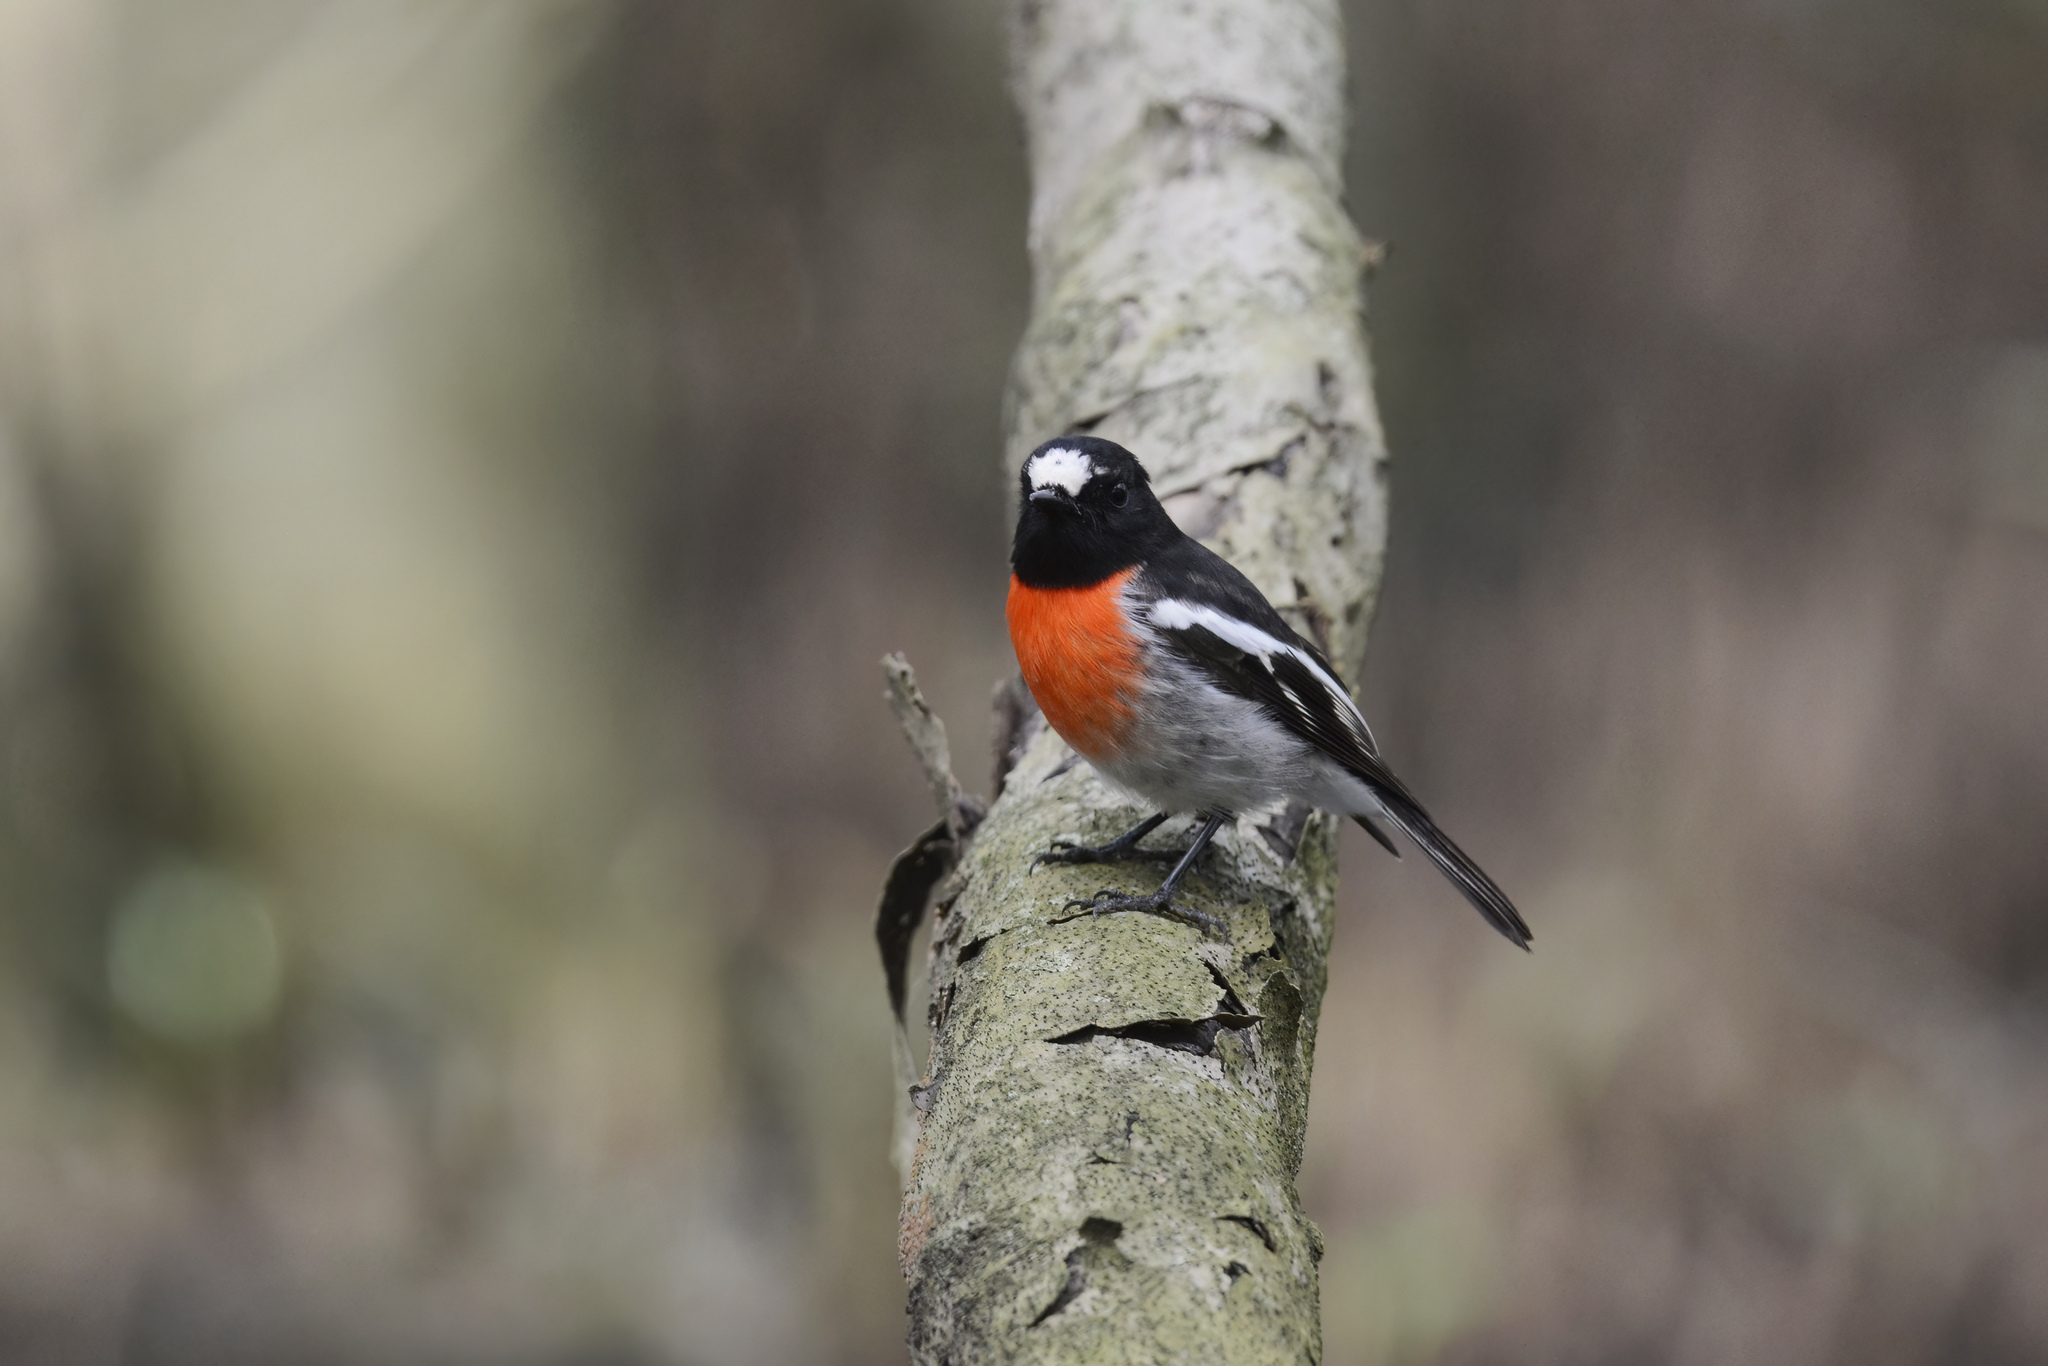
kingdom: Animalia
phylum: Chordata
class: Aves
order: Passeriformes
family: Petroicidae
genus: Petroica
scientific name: Petroica boodang
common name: Scarlet robin
